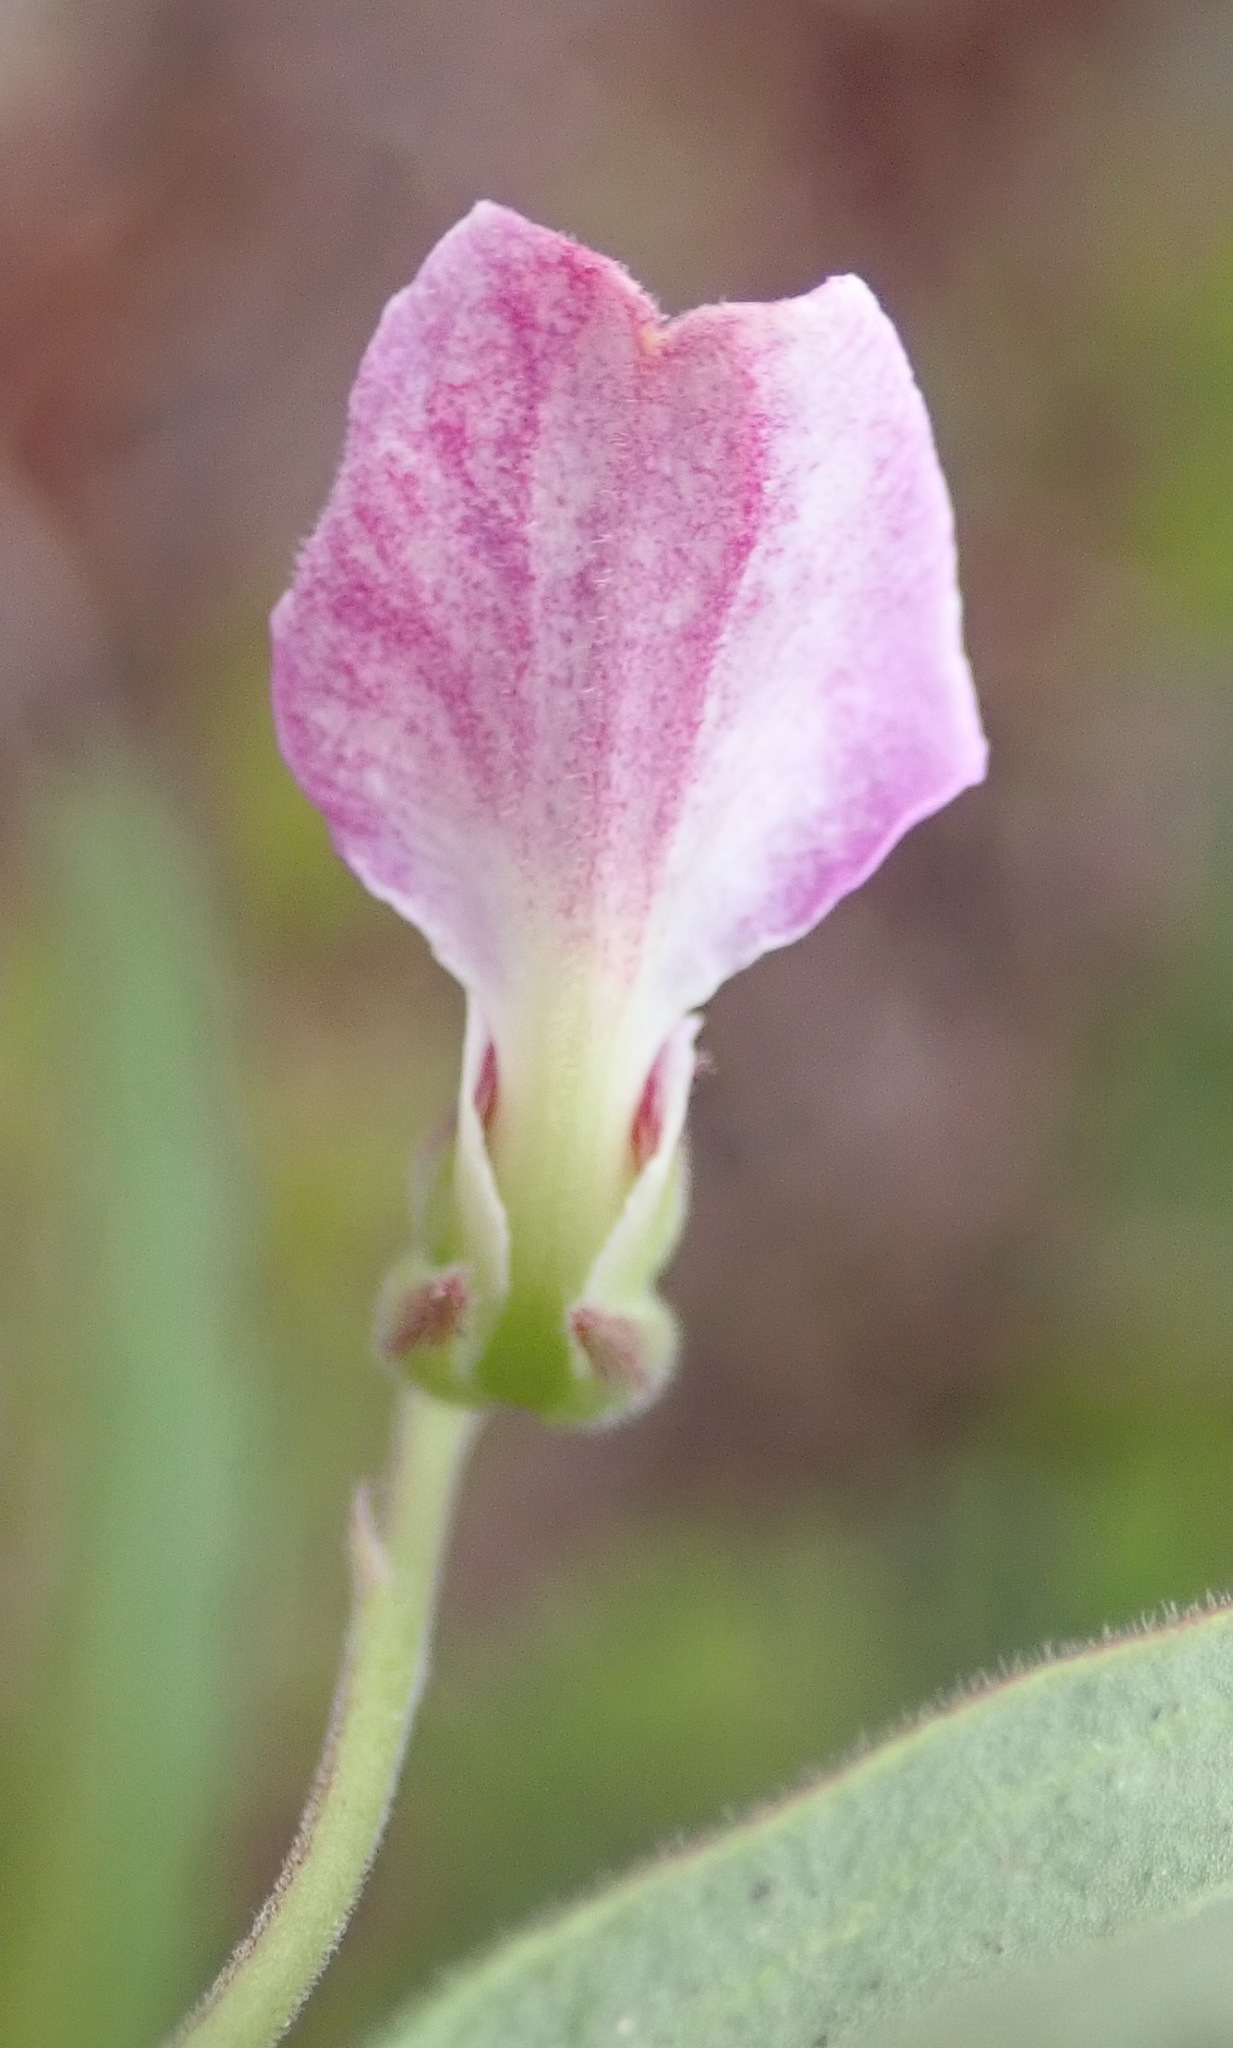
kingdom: Plantae
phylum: Tracheophyta
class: Magnoliopsida
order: Malpighiales
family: Violaceae
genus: Hybanthus
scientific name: Hybanthus capensis
